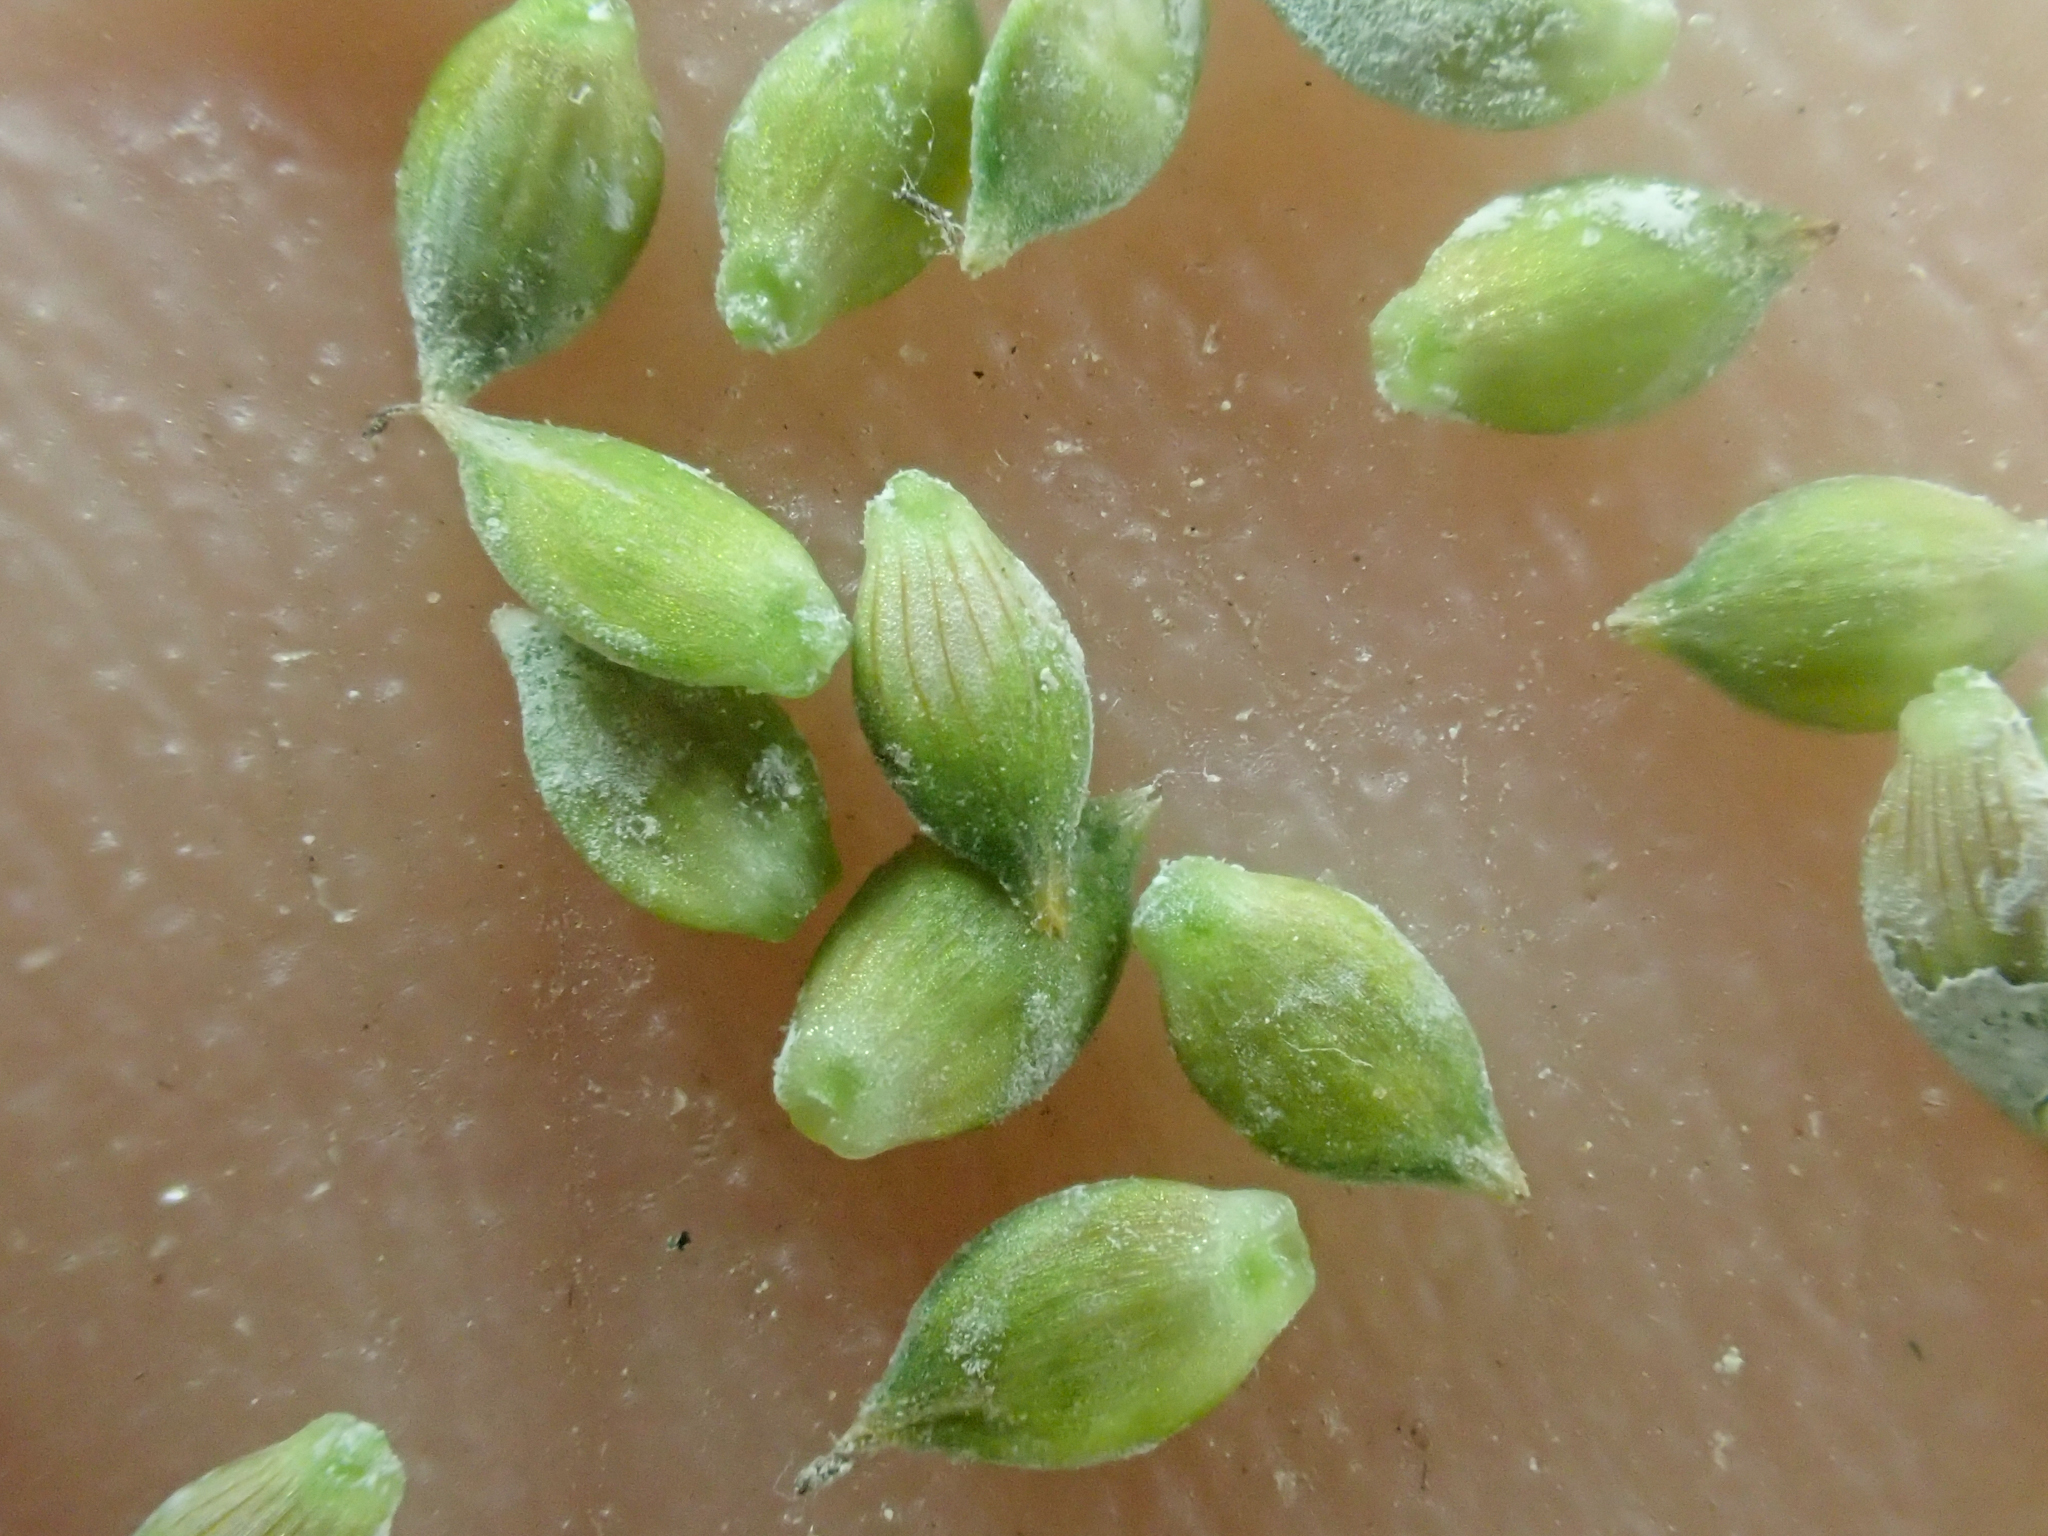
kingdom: Plantae
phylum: Tracheophyta
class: Liliopsida
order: Poales
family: Cyperaceae
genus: Carex
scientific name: Carex canescens
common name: White sedge
